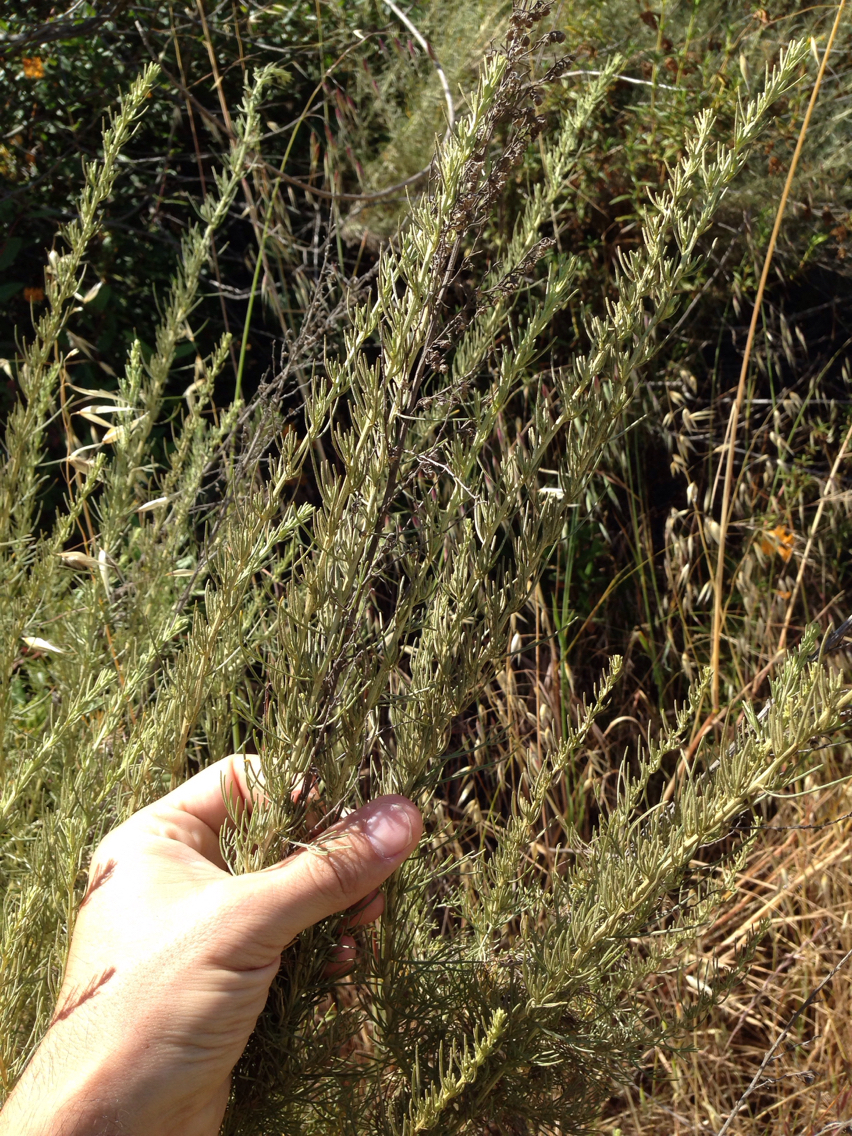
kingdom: Plantae
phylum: Tracheophyta
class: Magnoliopsida
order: Asterales
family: Asteraceae
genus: Artemisia
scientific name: Artemisia californica
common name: California sagebrush
